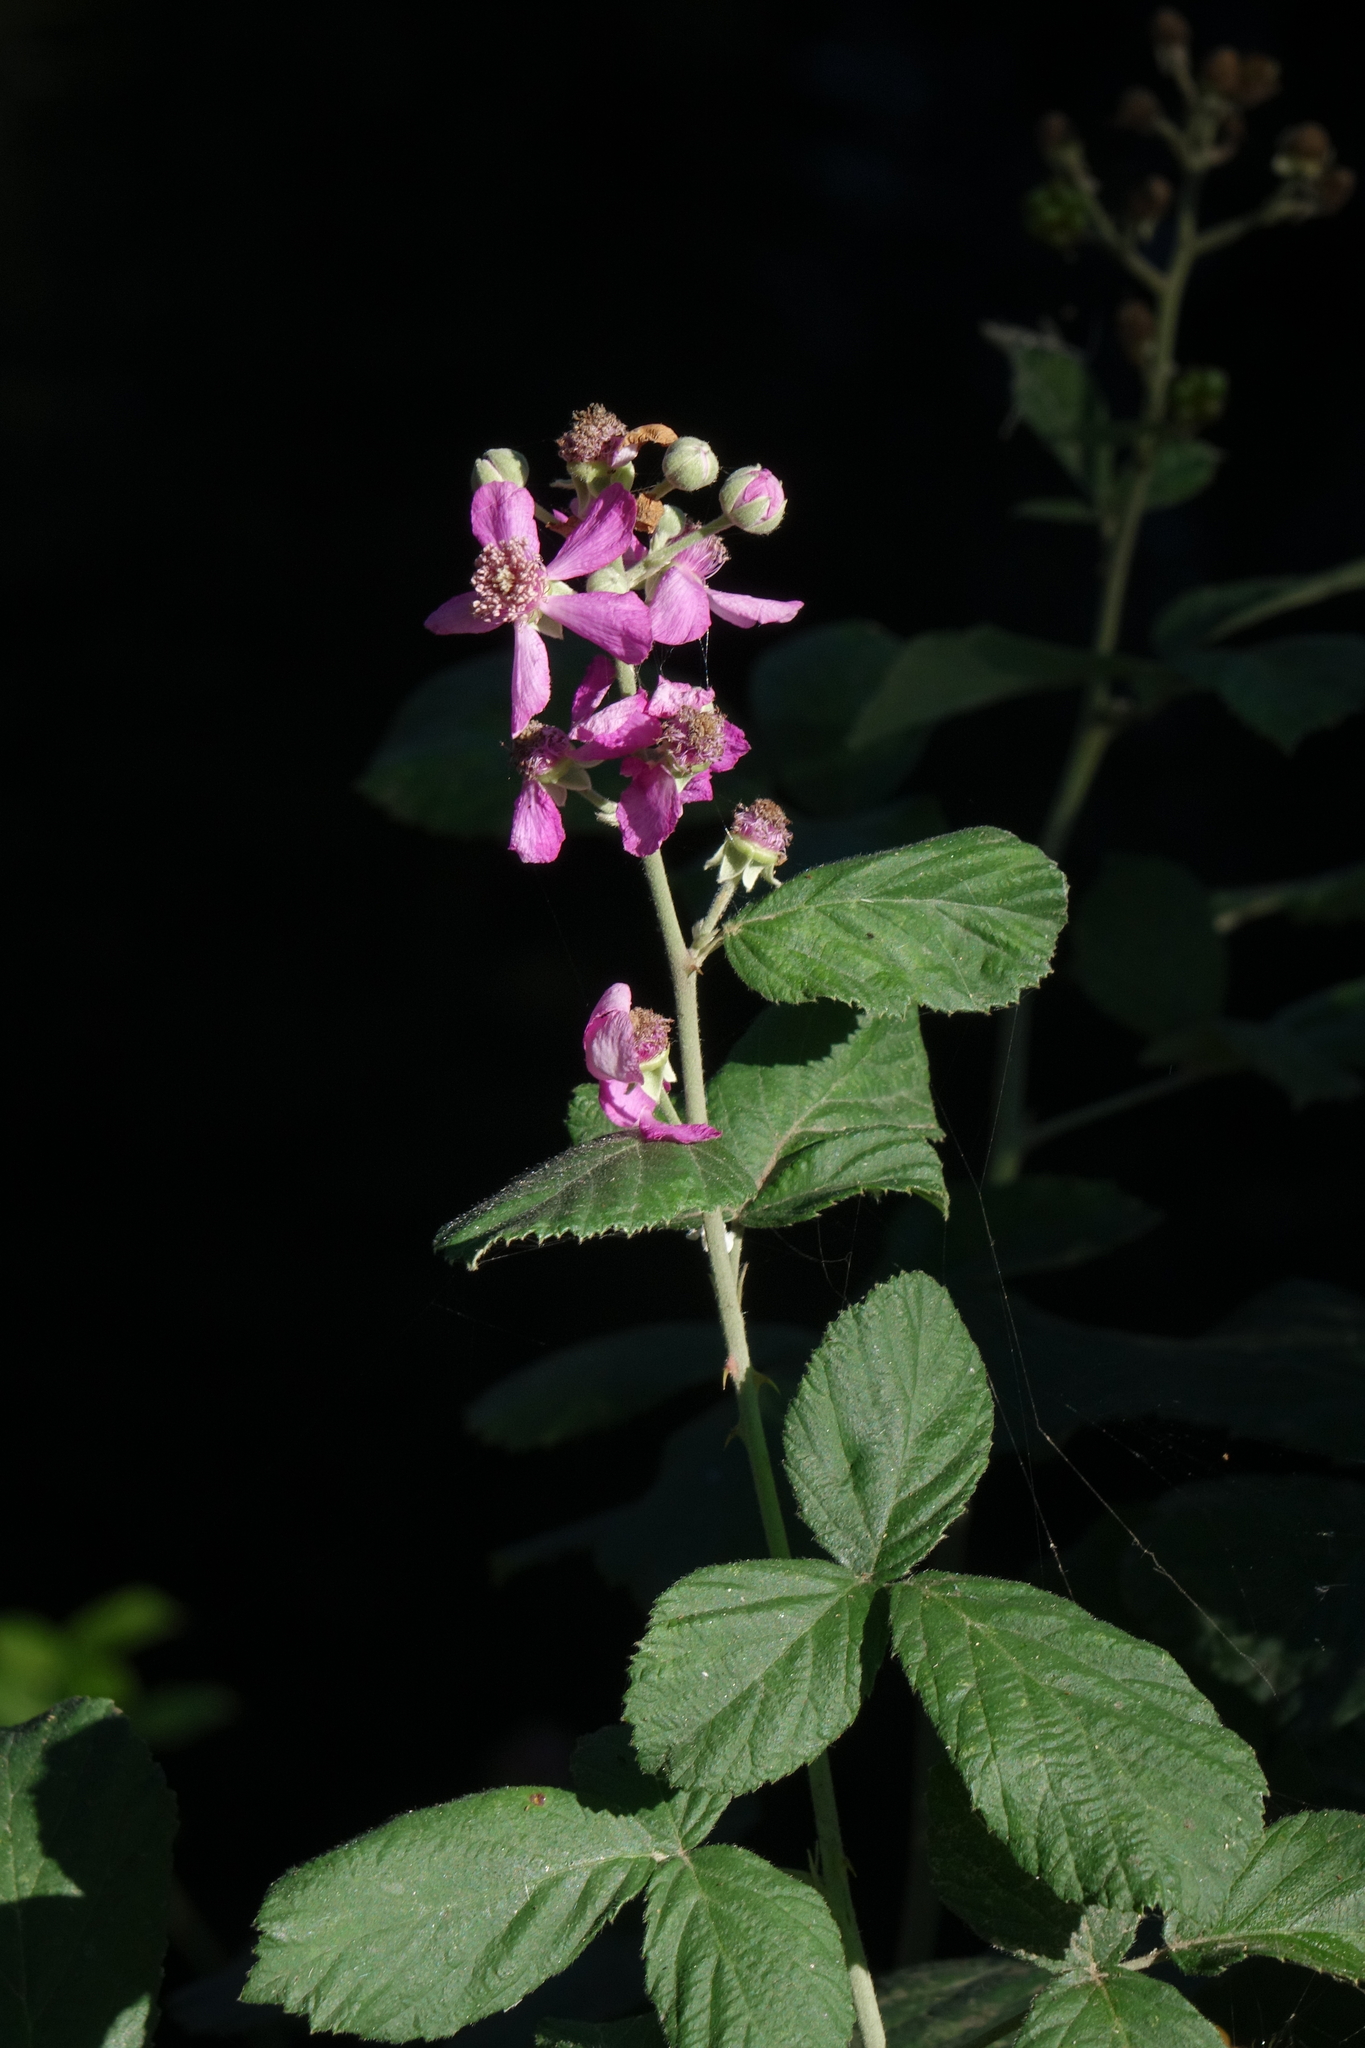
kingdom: Plantae
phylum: Tracheophyta
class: Magnoliopsida
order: Rosales
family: Rosaceae
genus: Rubus
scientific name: Rubus sanctus
